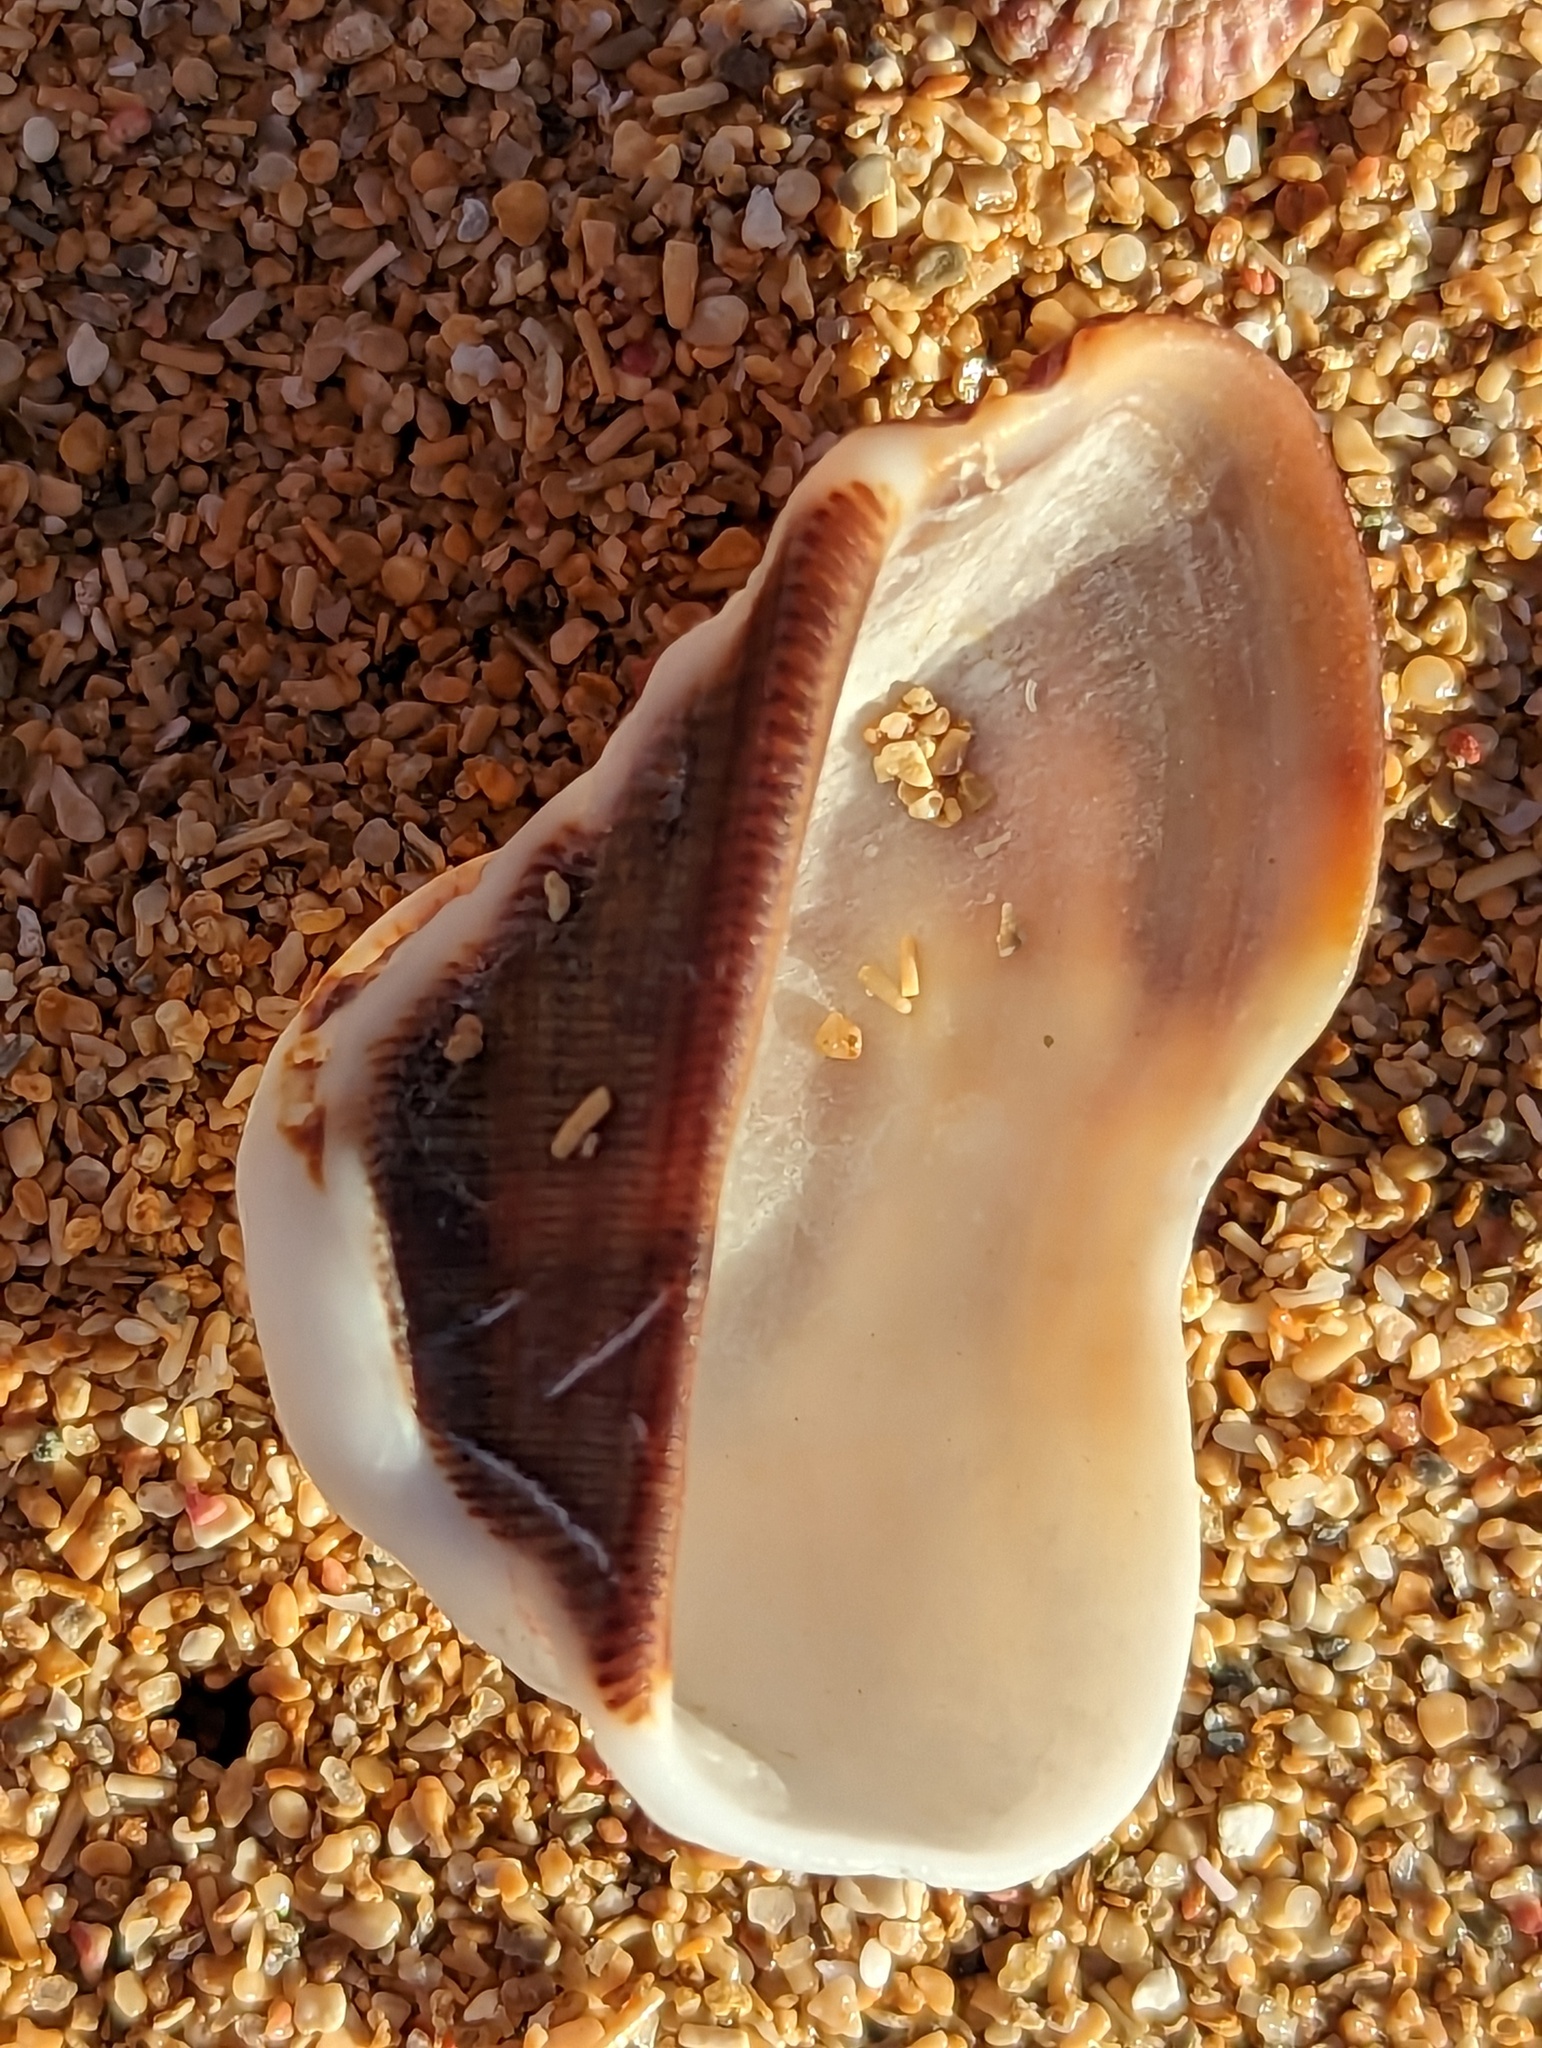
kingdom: Animalia
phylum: Mollusca
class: Bivalvia
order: Arcida
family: Arcidae
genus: Lamarcka
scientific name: Lamarcka imbricata
